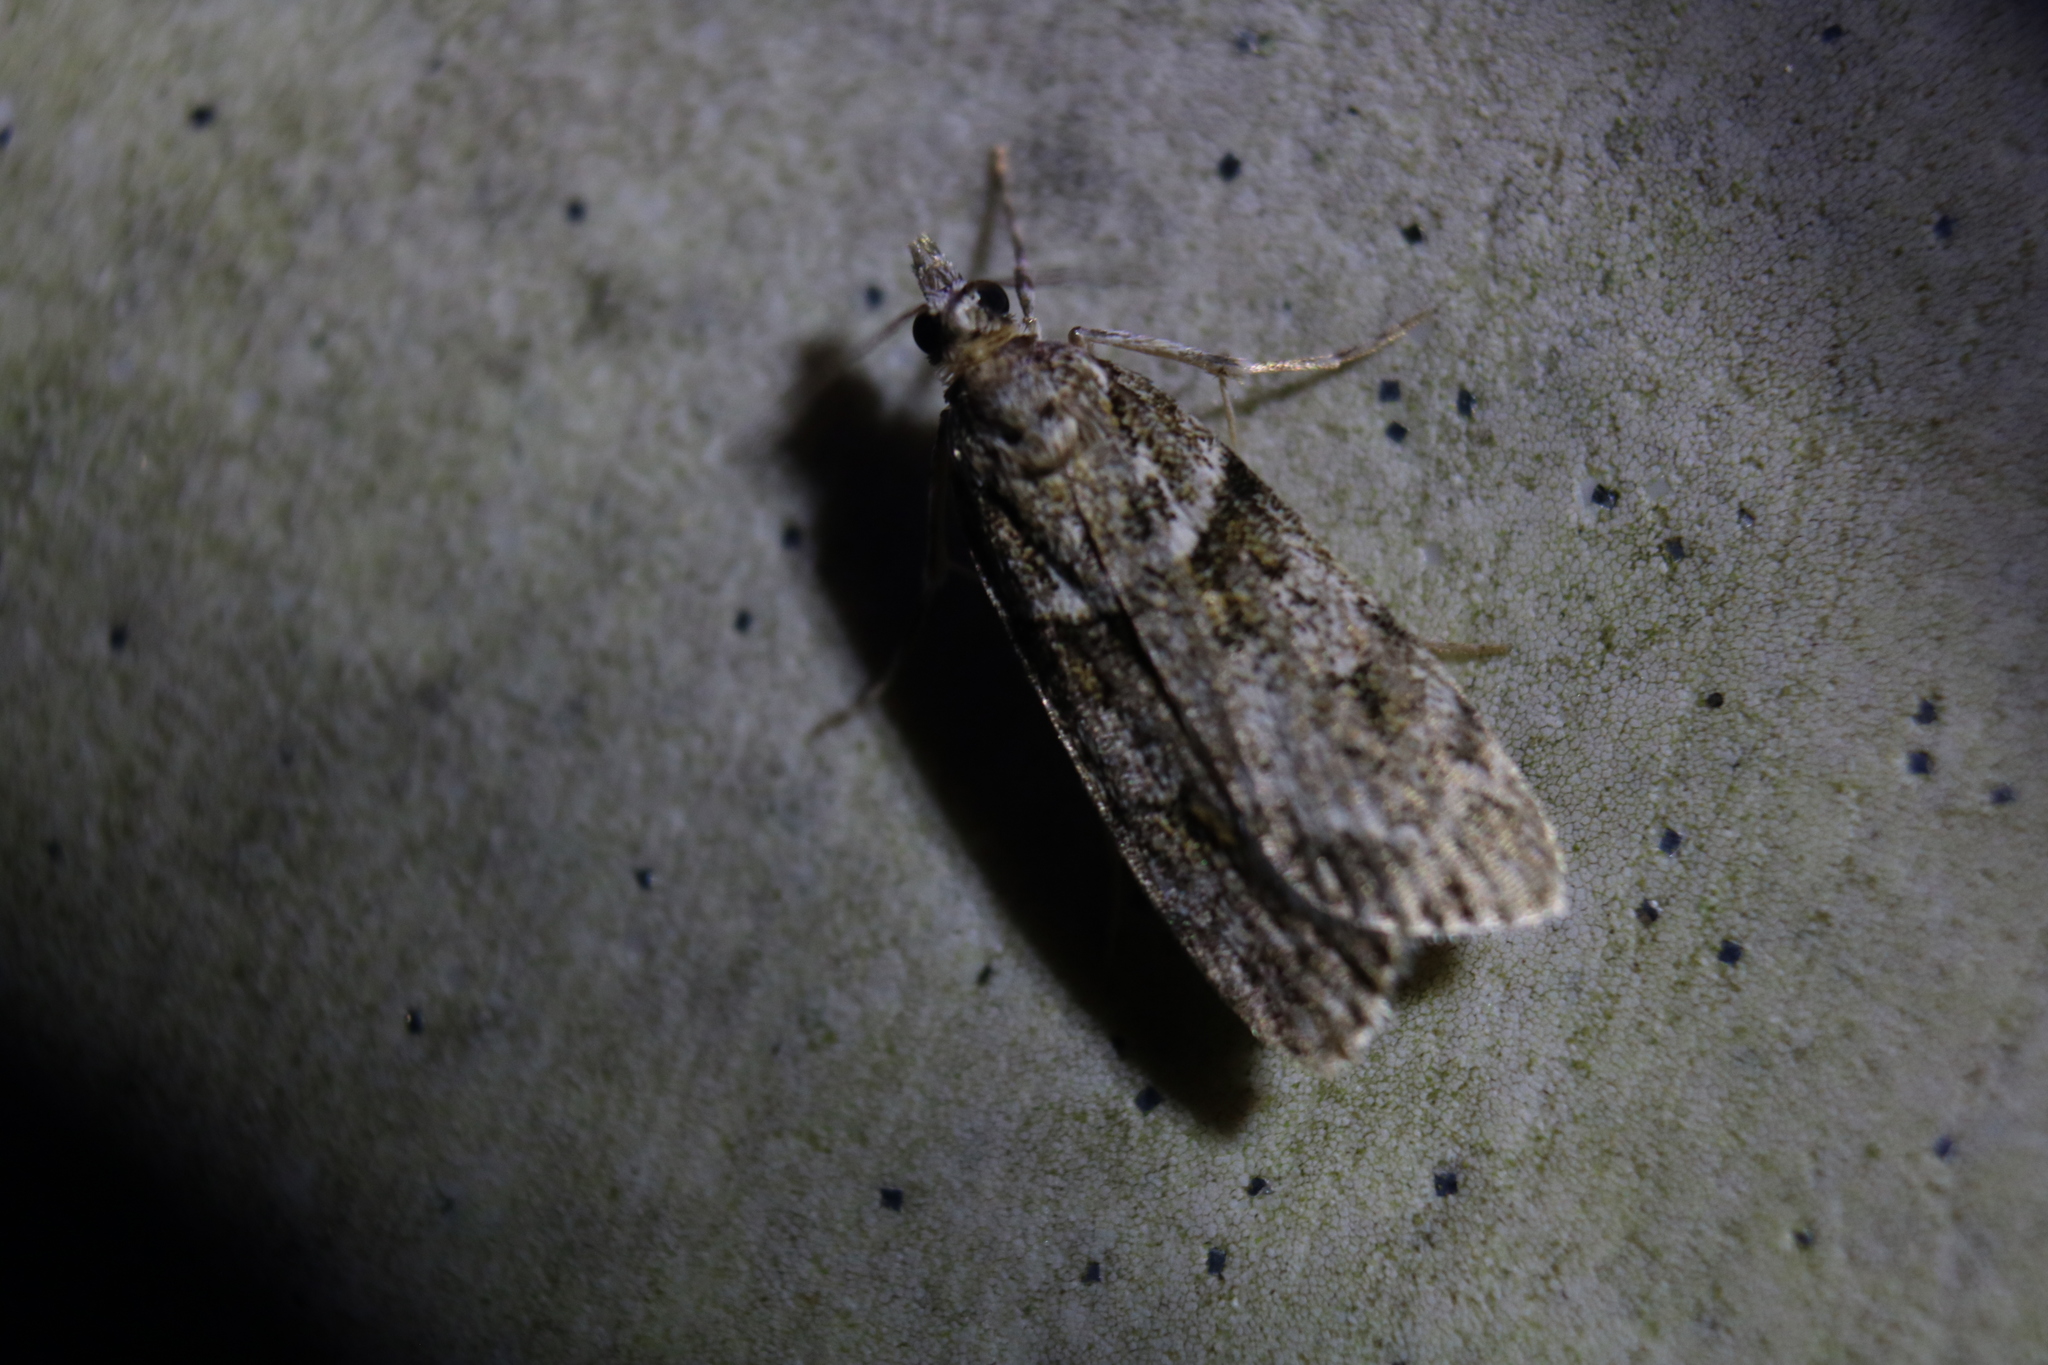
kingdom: Animalia
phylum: Arthropoda
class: Insecta
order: Lepidoptera
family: Crambidae
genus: Scoparia
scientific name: Scoparia biplagialis
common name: Double-striped scoparia moth
